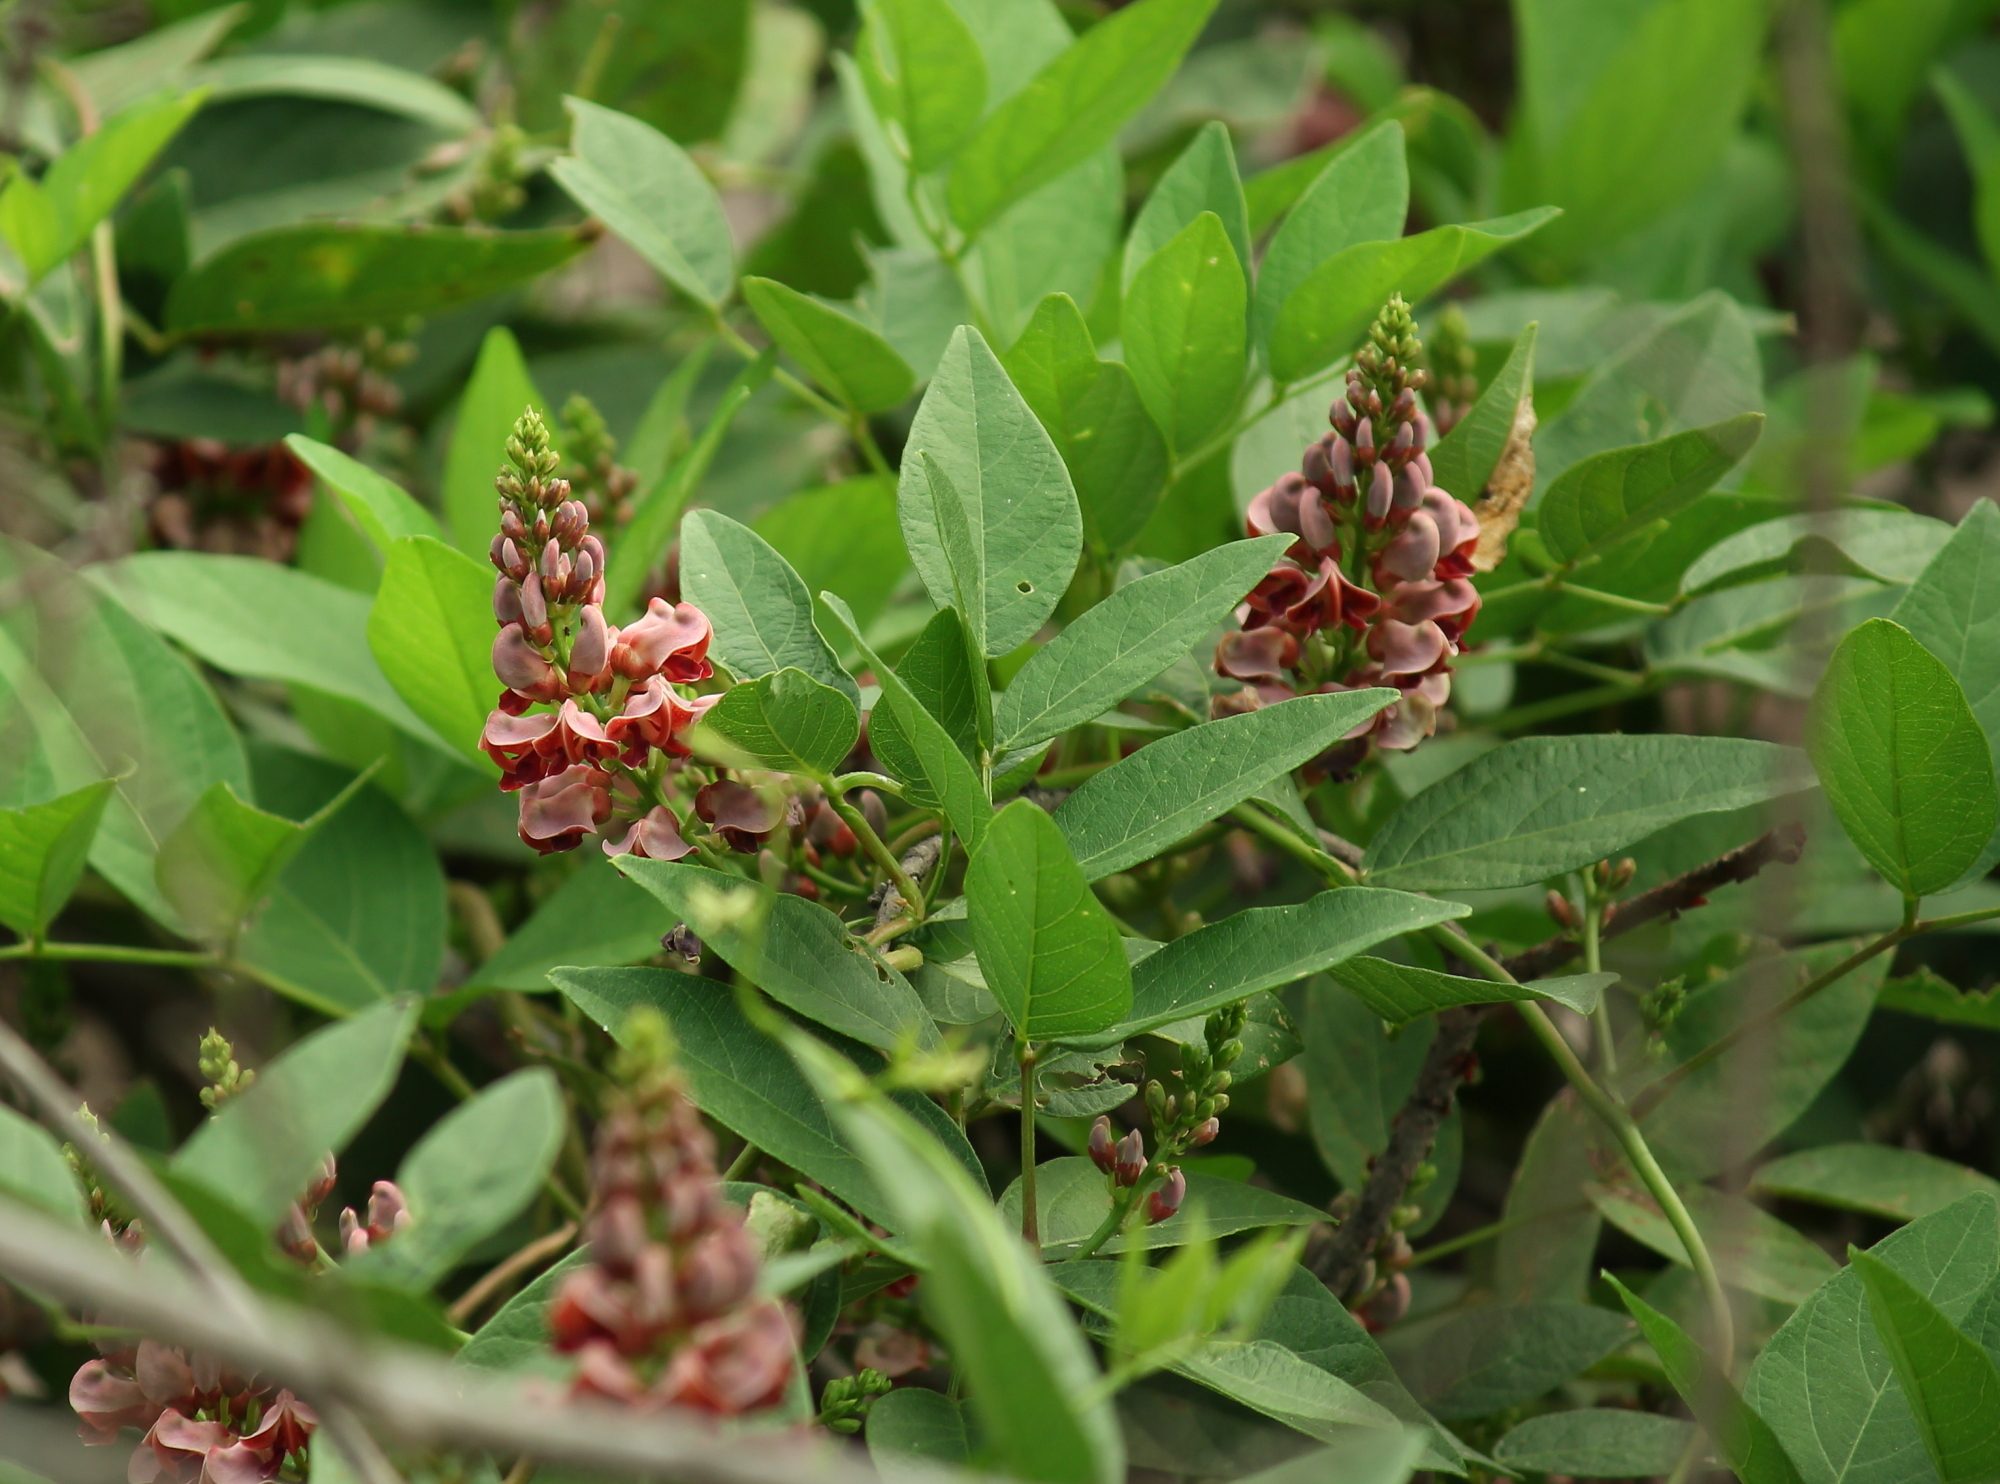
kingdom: Plantae
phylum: Tracheophyta
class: Magnoliopsida
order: Fabales
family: Fabaceae
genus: Apios
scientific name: Apios americana
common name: American potato-bean
